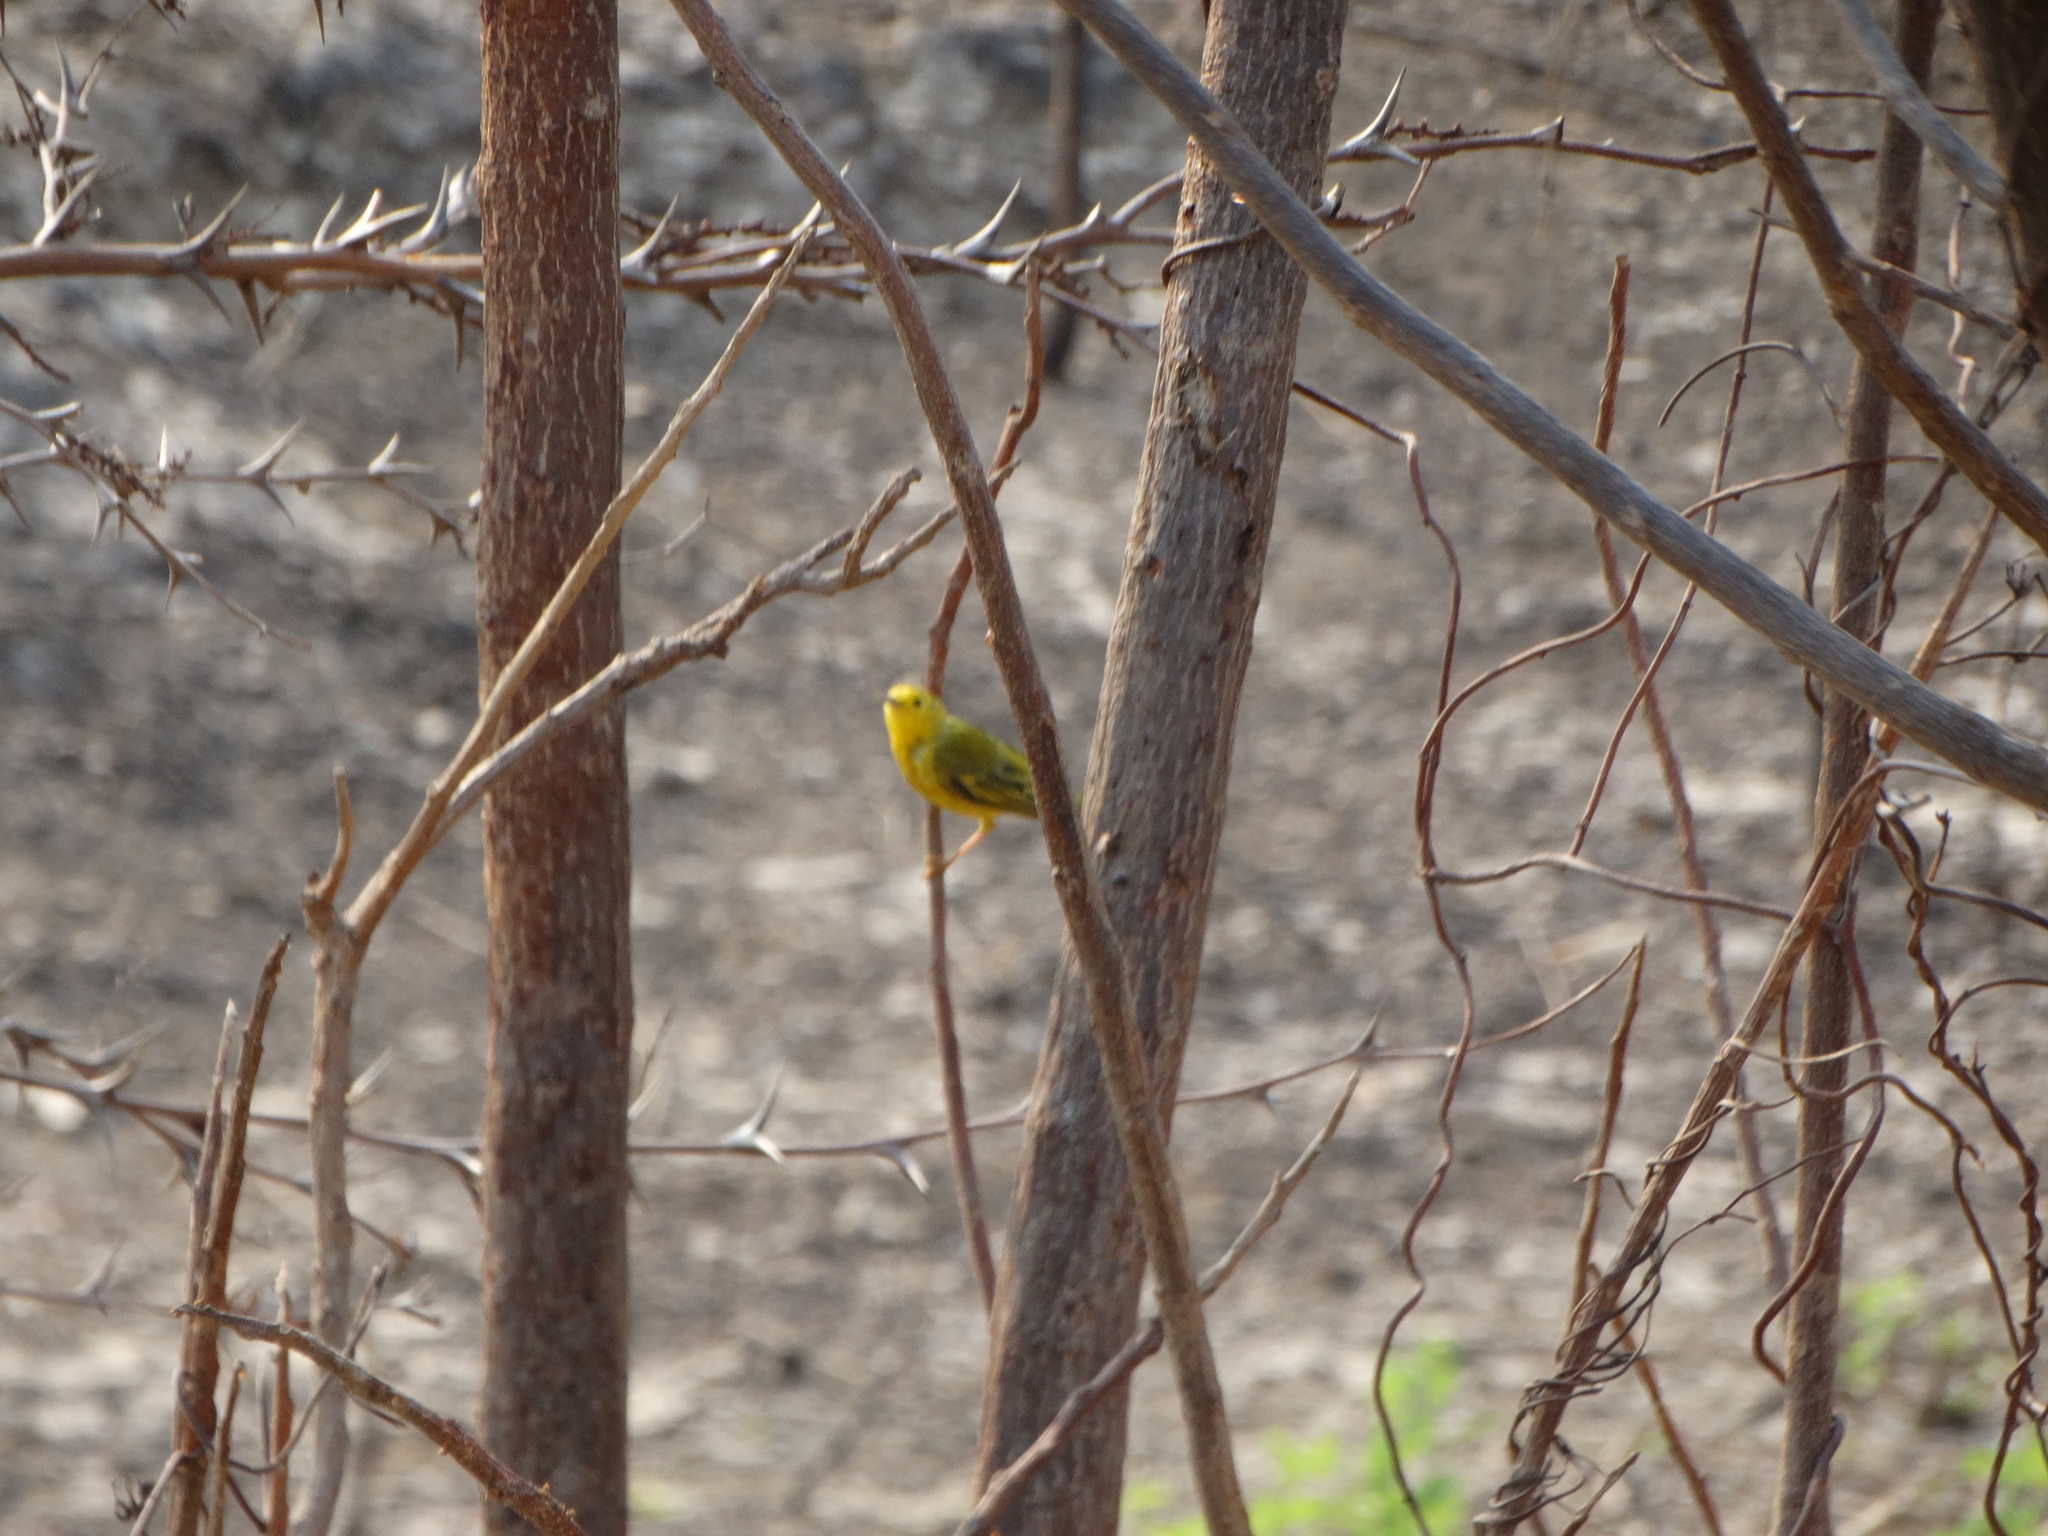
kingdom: Animalia
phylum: Chordata
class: Aves
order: Passeriformes
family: Parulidae
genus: Setophaga
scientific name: Setophaga petechia
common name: Yellow warbler
